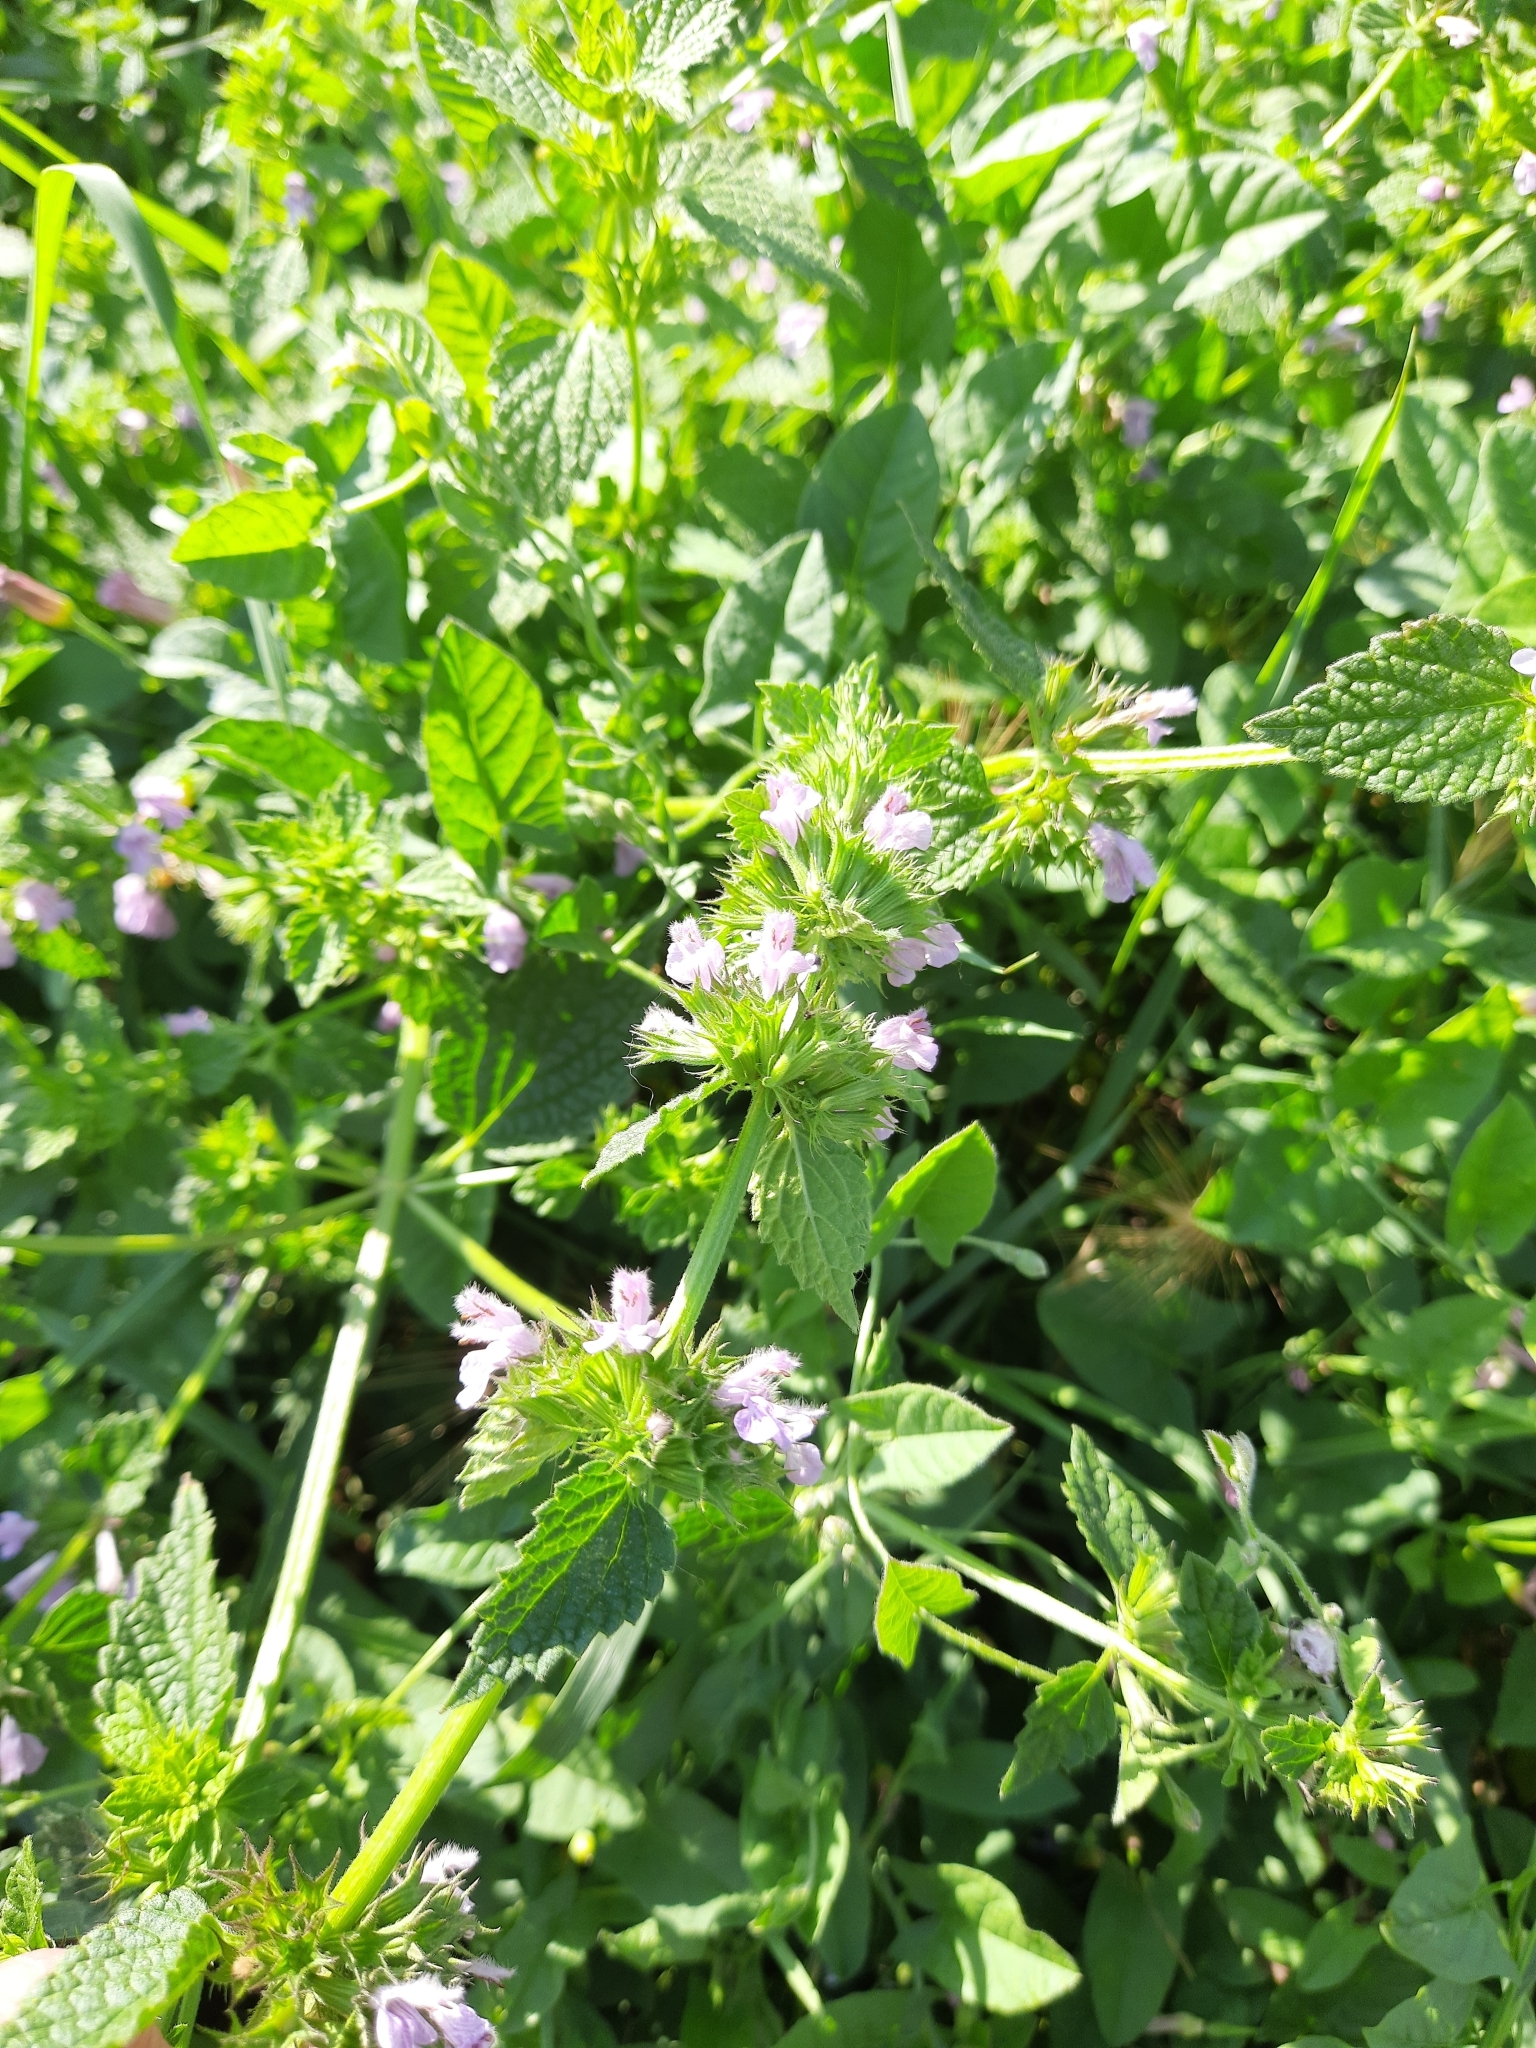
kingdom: Plantae
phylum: Tracheophyta
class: Magnoliopsida
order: Lamiales
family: Lamiaceae
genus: Ballota
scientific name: Ballota nigra
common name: Black horehound
